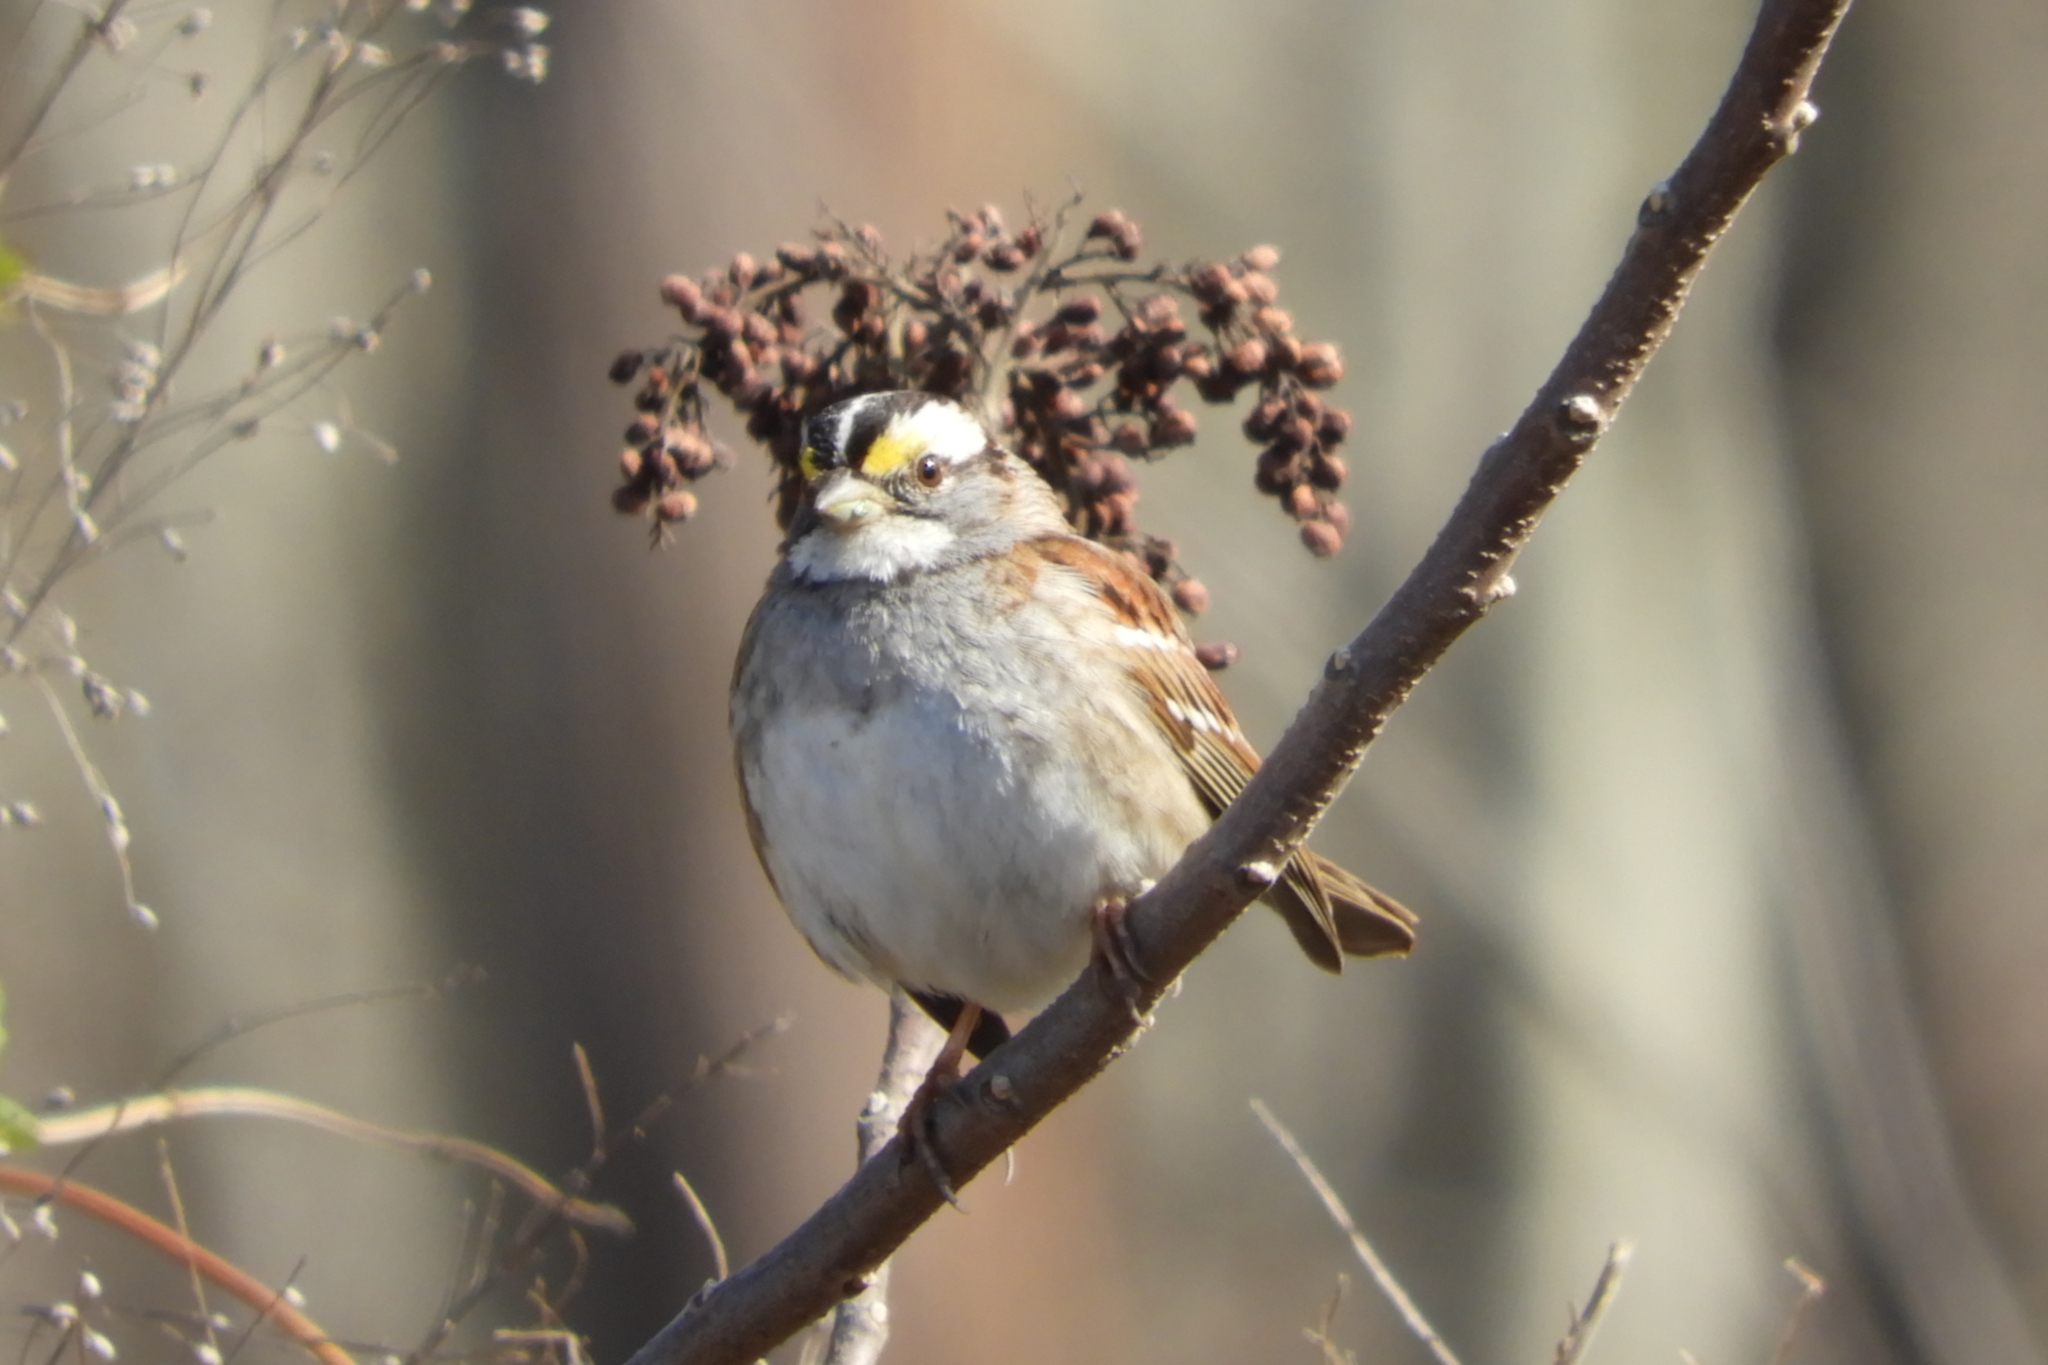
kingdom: Animalia
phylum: Chordata
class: Aves
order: Passeriformes
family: Passerellidae
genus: Zonotrichia
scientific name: Zonotrichia albicollis
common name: White-throated sparrow
